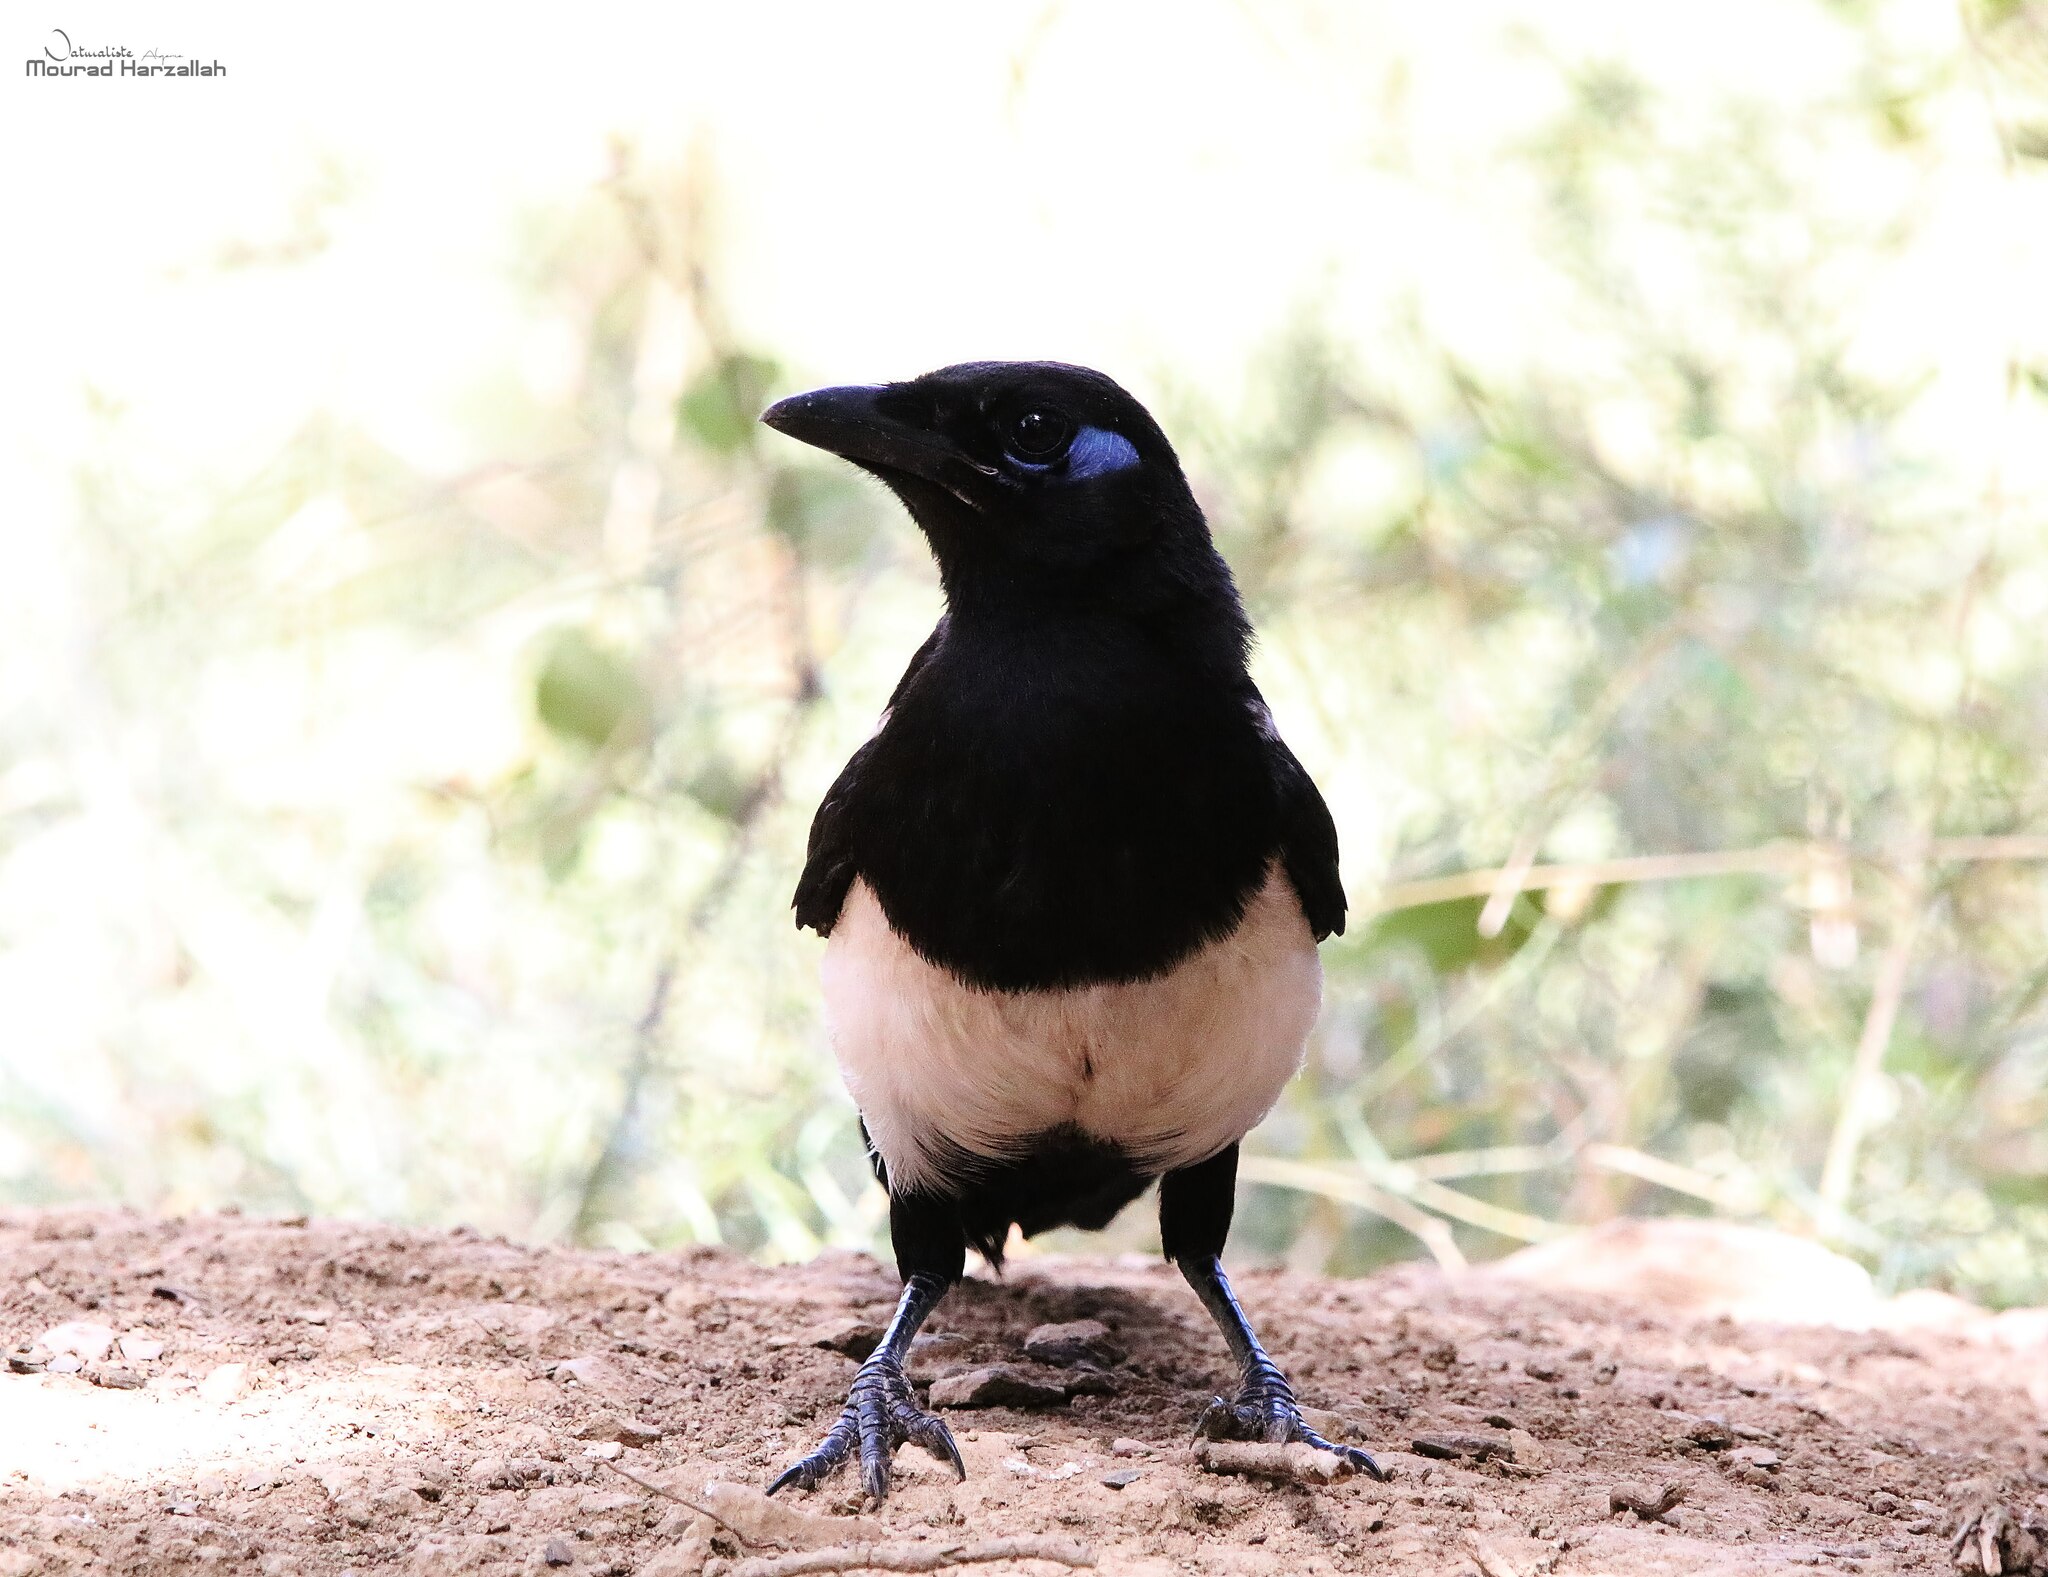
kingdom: Animalia
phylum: Chordata
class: Aves
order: Passeriformes
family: Corvidae
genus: Pica
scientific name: Pica mauritanica
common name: Maghreb magpie
